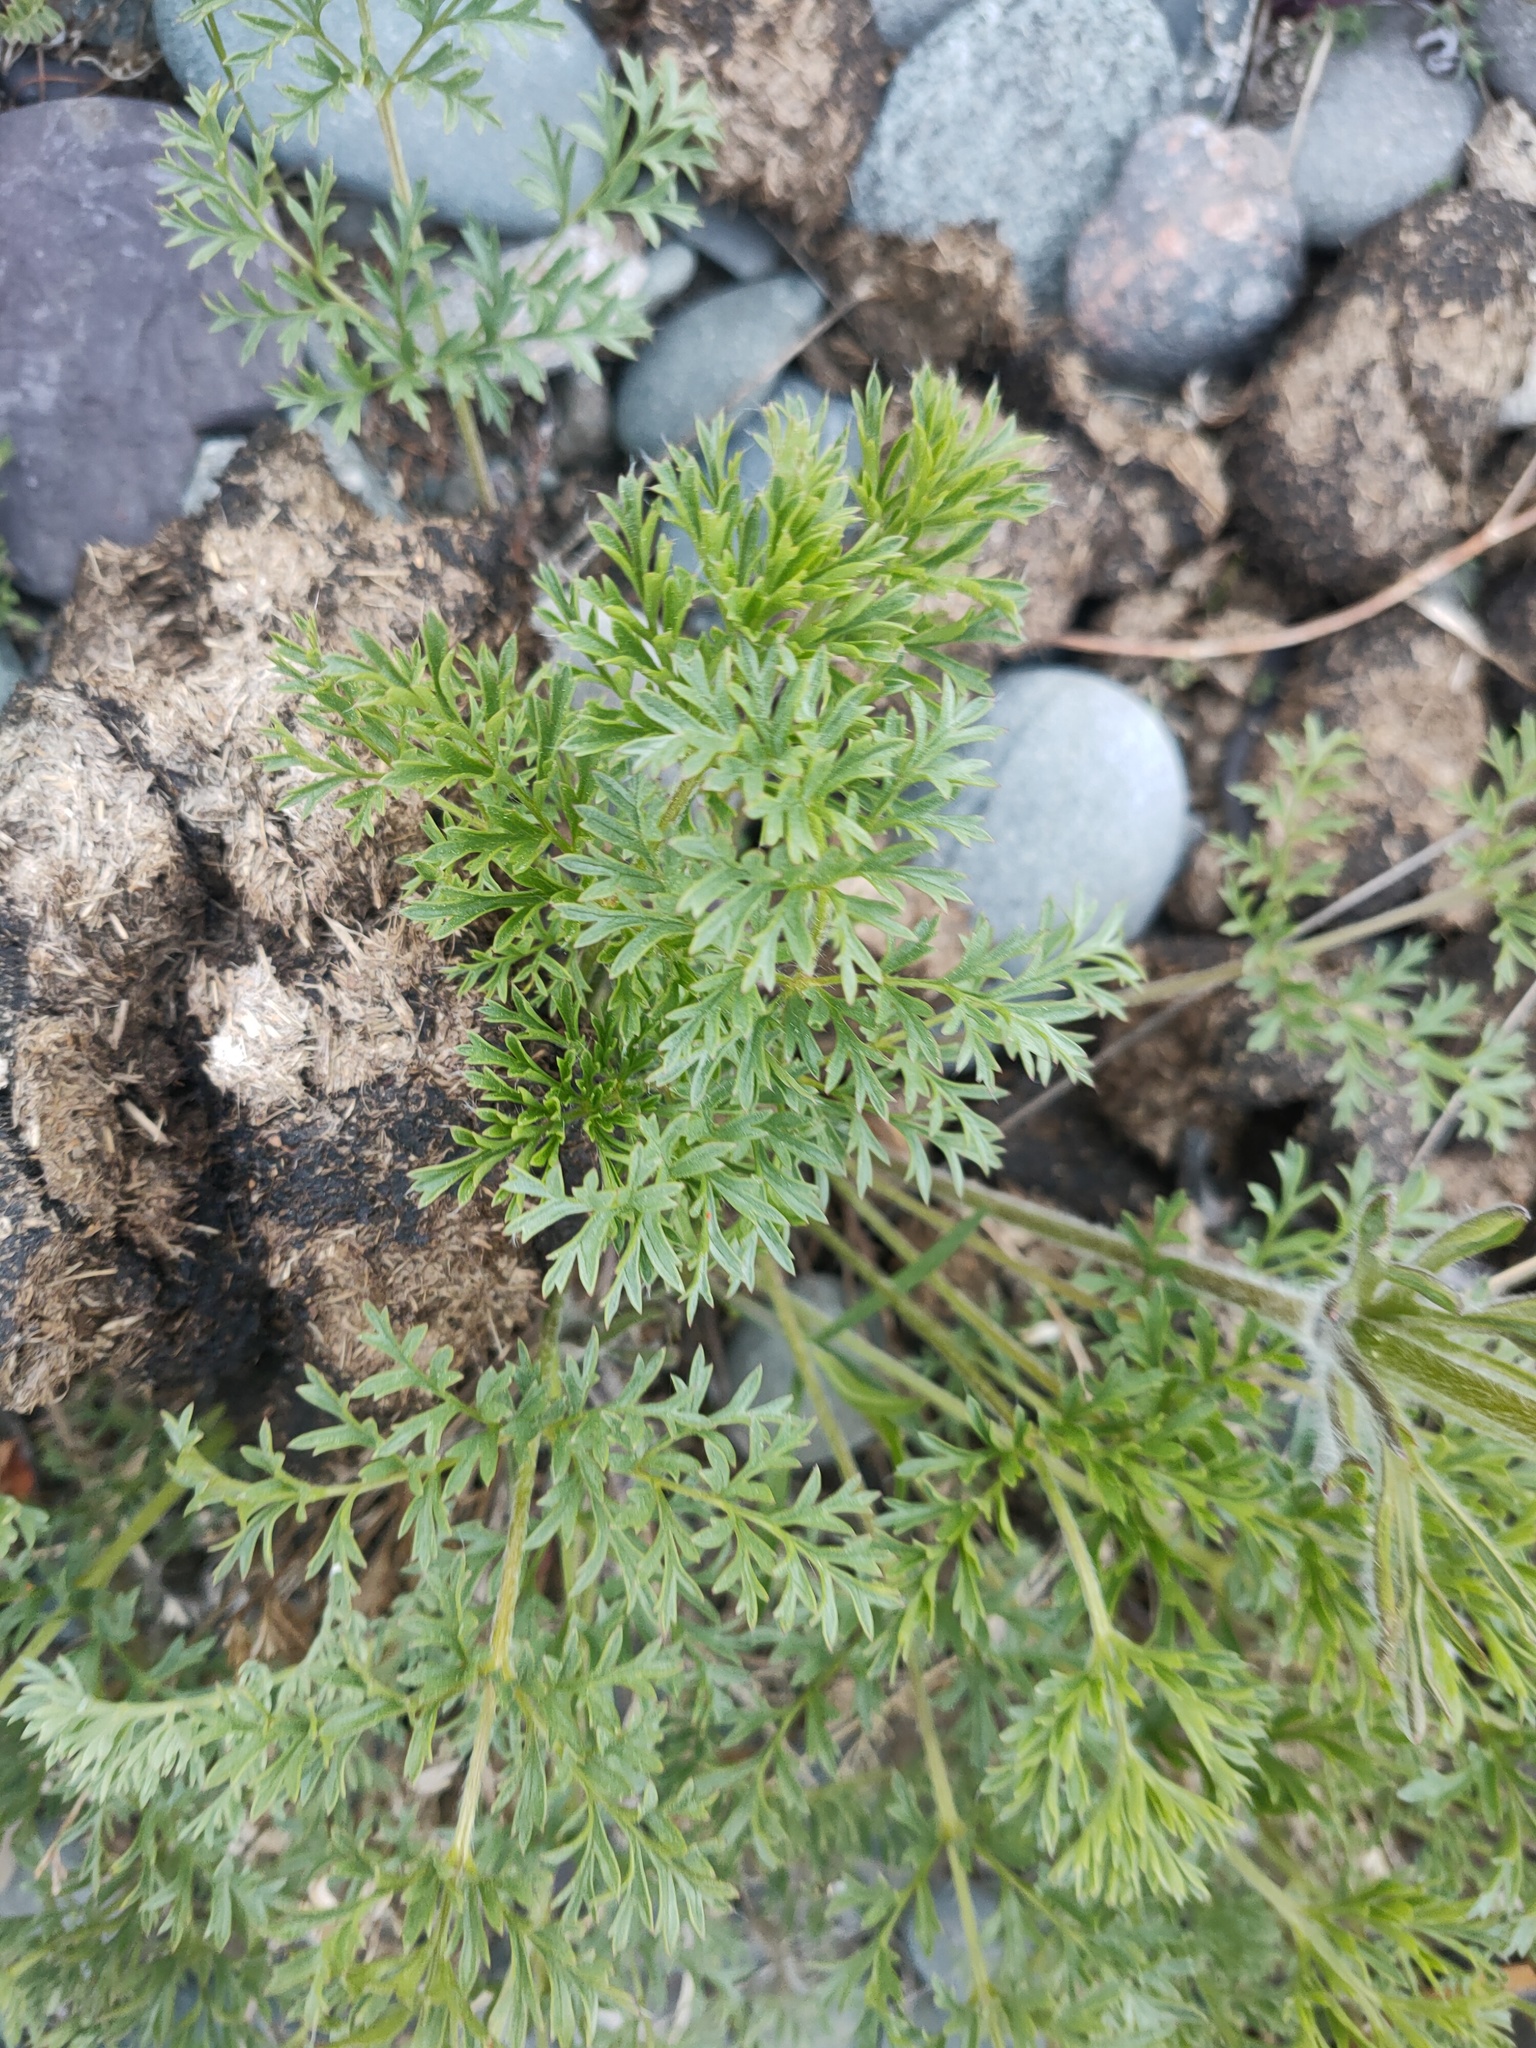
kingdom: Plantae
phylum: Tracheophyta
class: Magnoliopsida
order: Ranunculales
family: Ranunculaceae
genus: Pulsatilla
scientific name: Pulsatilla turczaninovii
